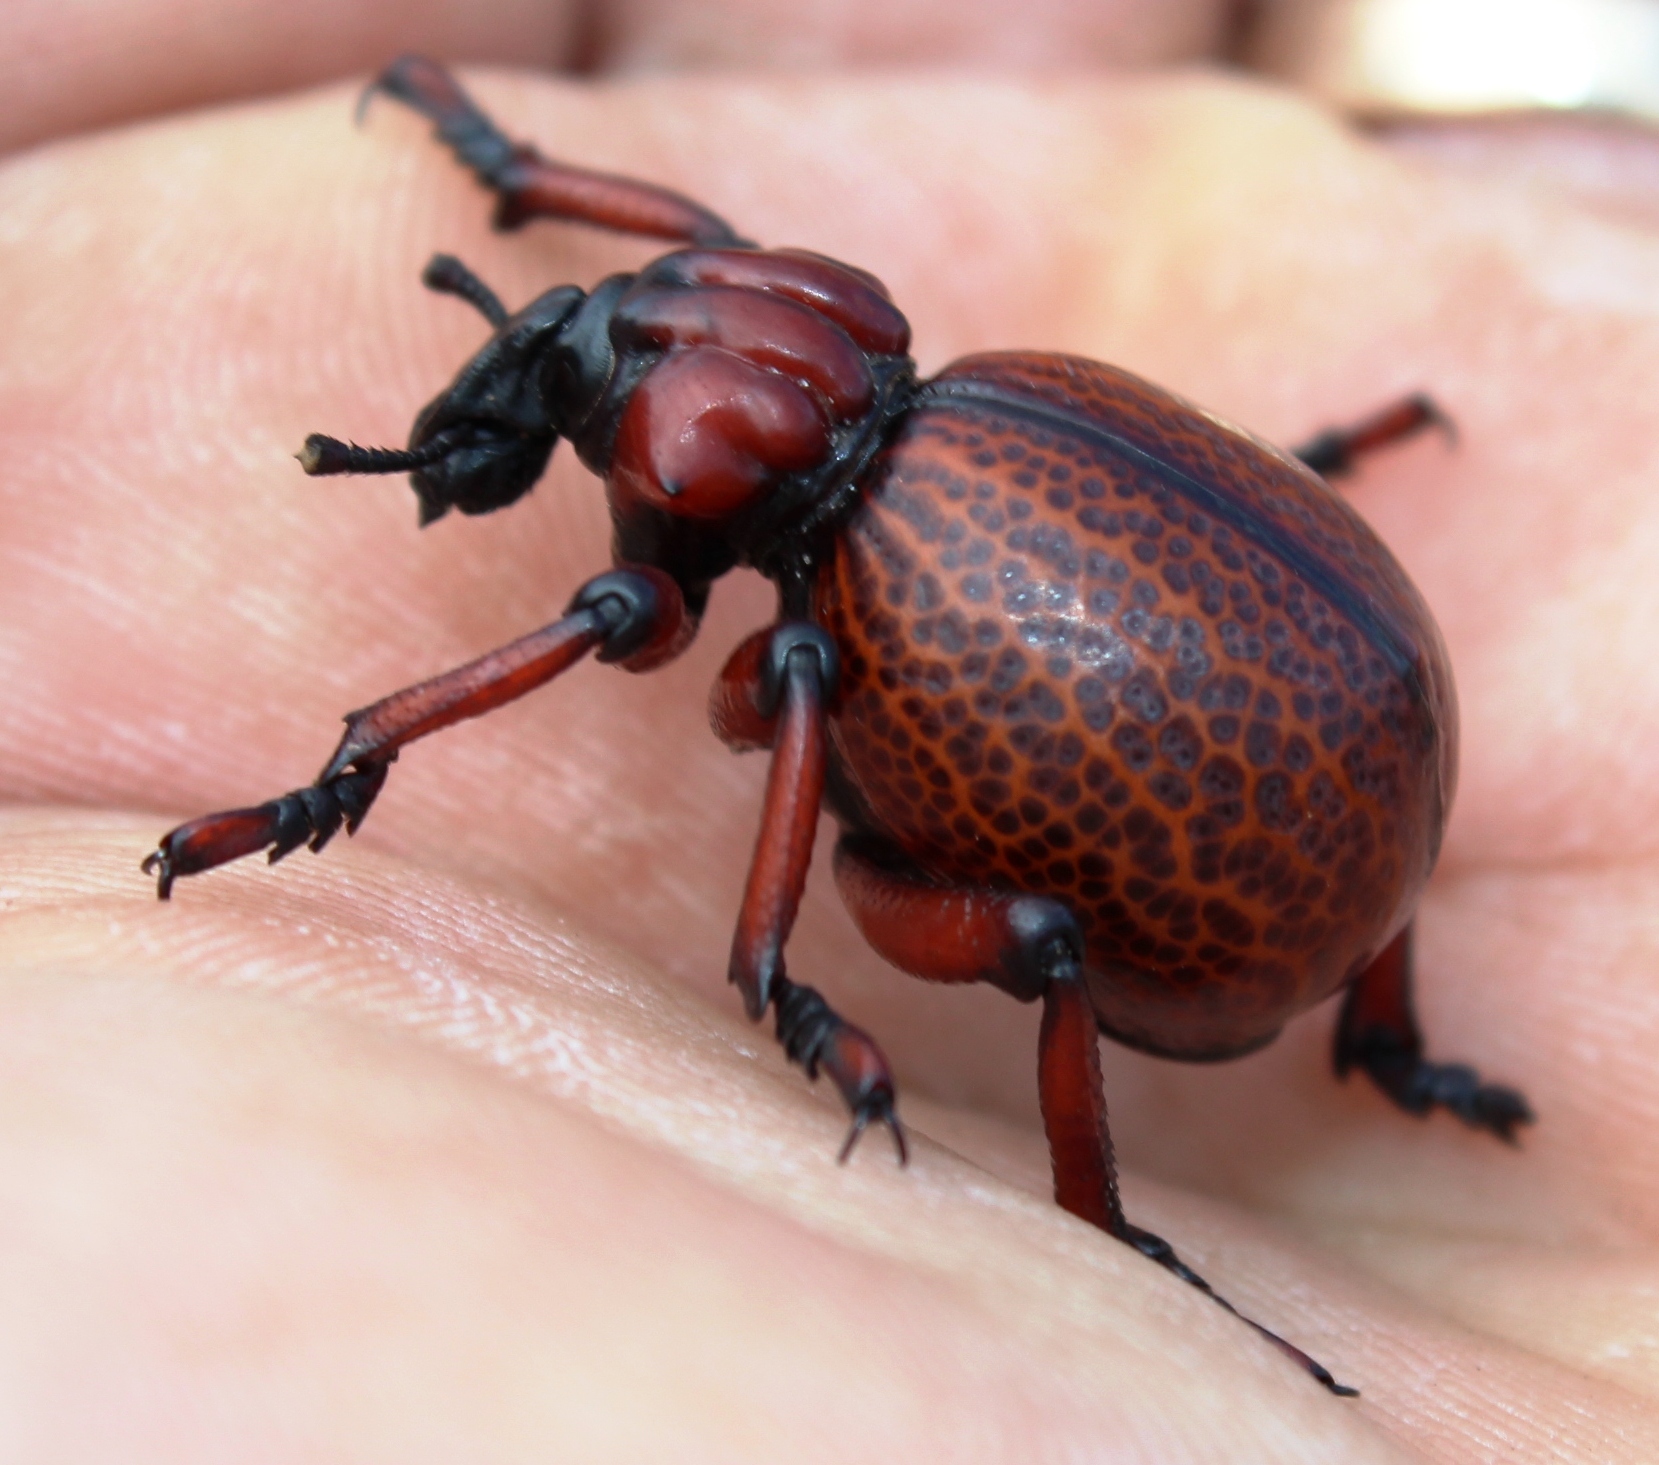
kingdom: Animalia
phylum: Arthropoda
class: Insecta
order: Coleoptera
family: Brachyceridae
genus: Brachycerus
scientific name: Brachycerus obesus
